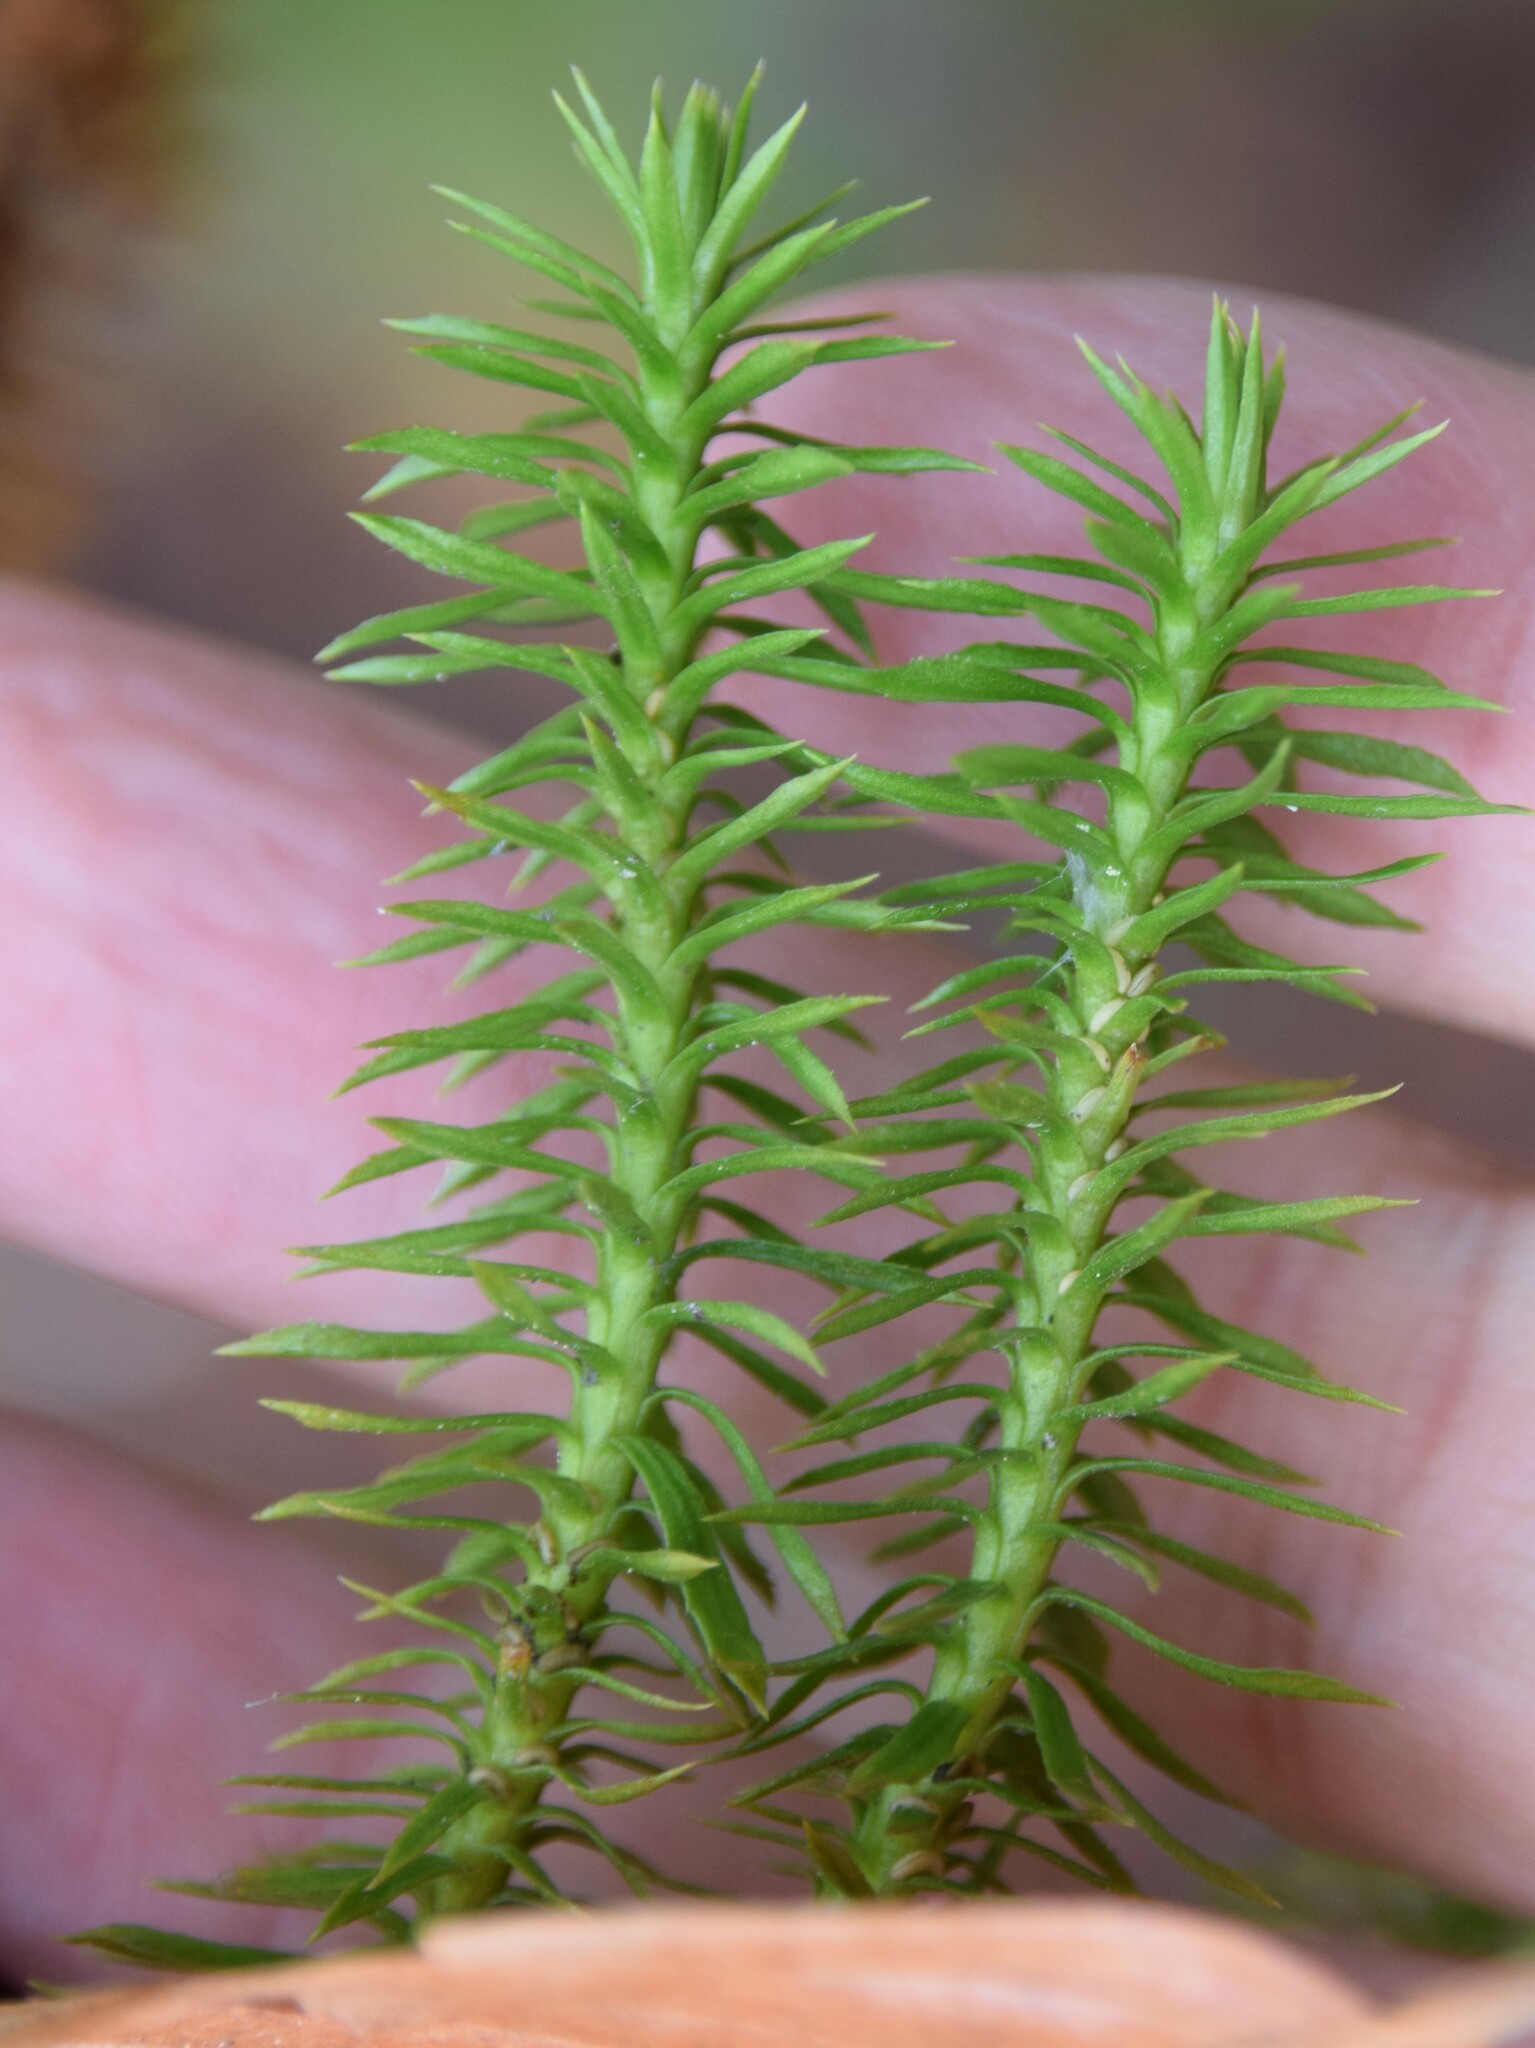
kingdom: Plantae
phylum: Tracheophyta
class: Lycopodiopsida
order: Lycopodiales
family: Lycopodiaceae
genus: Huperzia
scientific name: Huperzia lucidula
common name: Shining clubmoss
